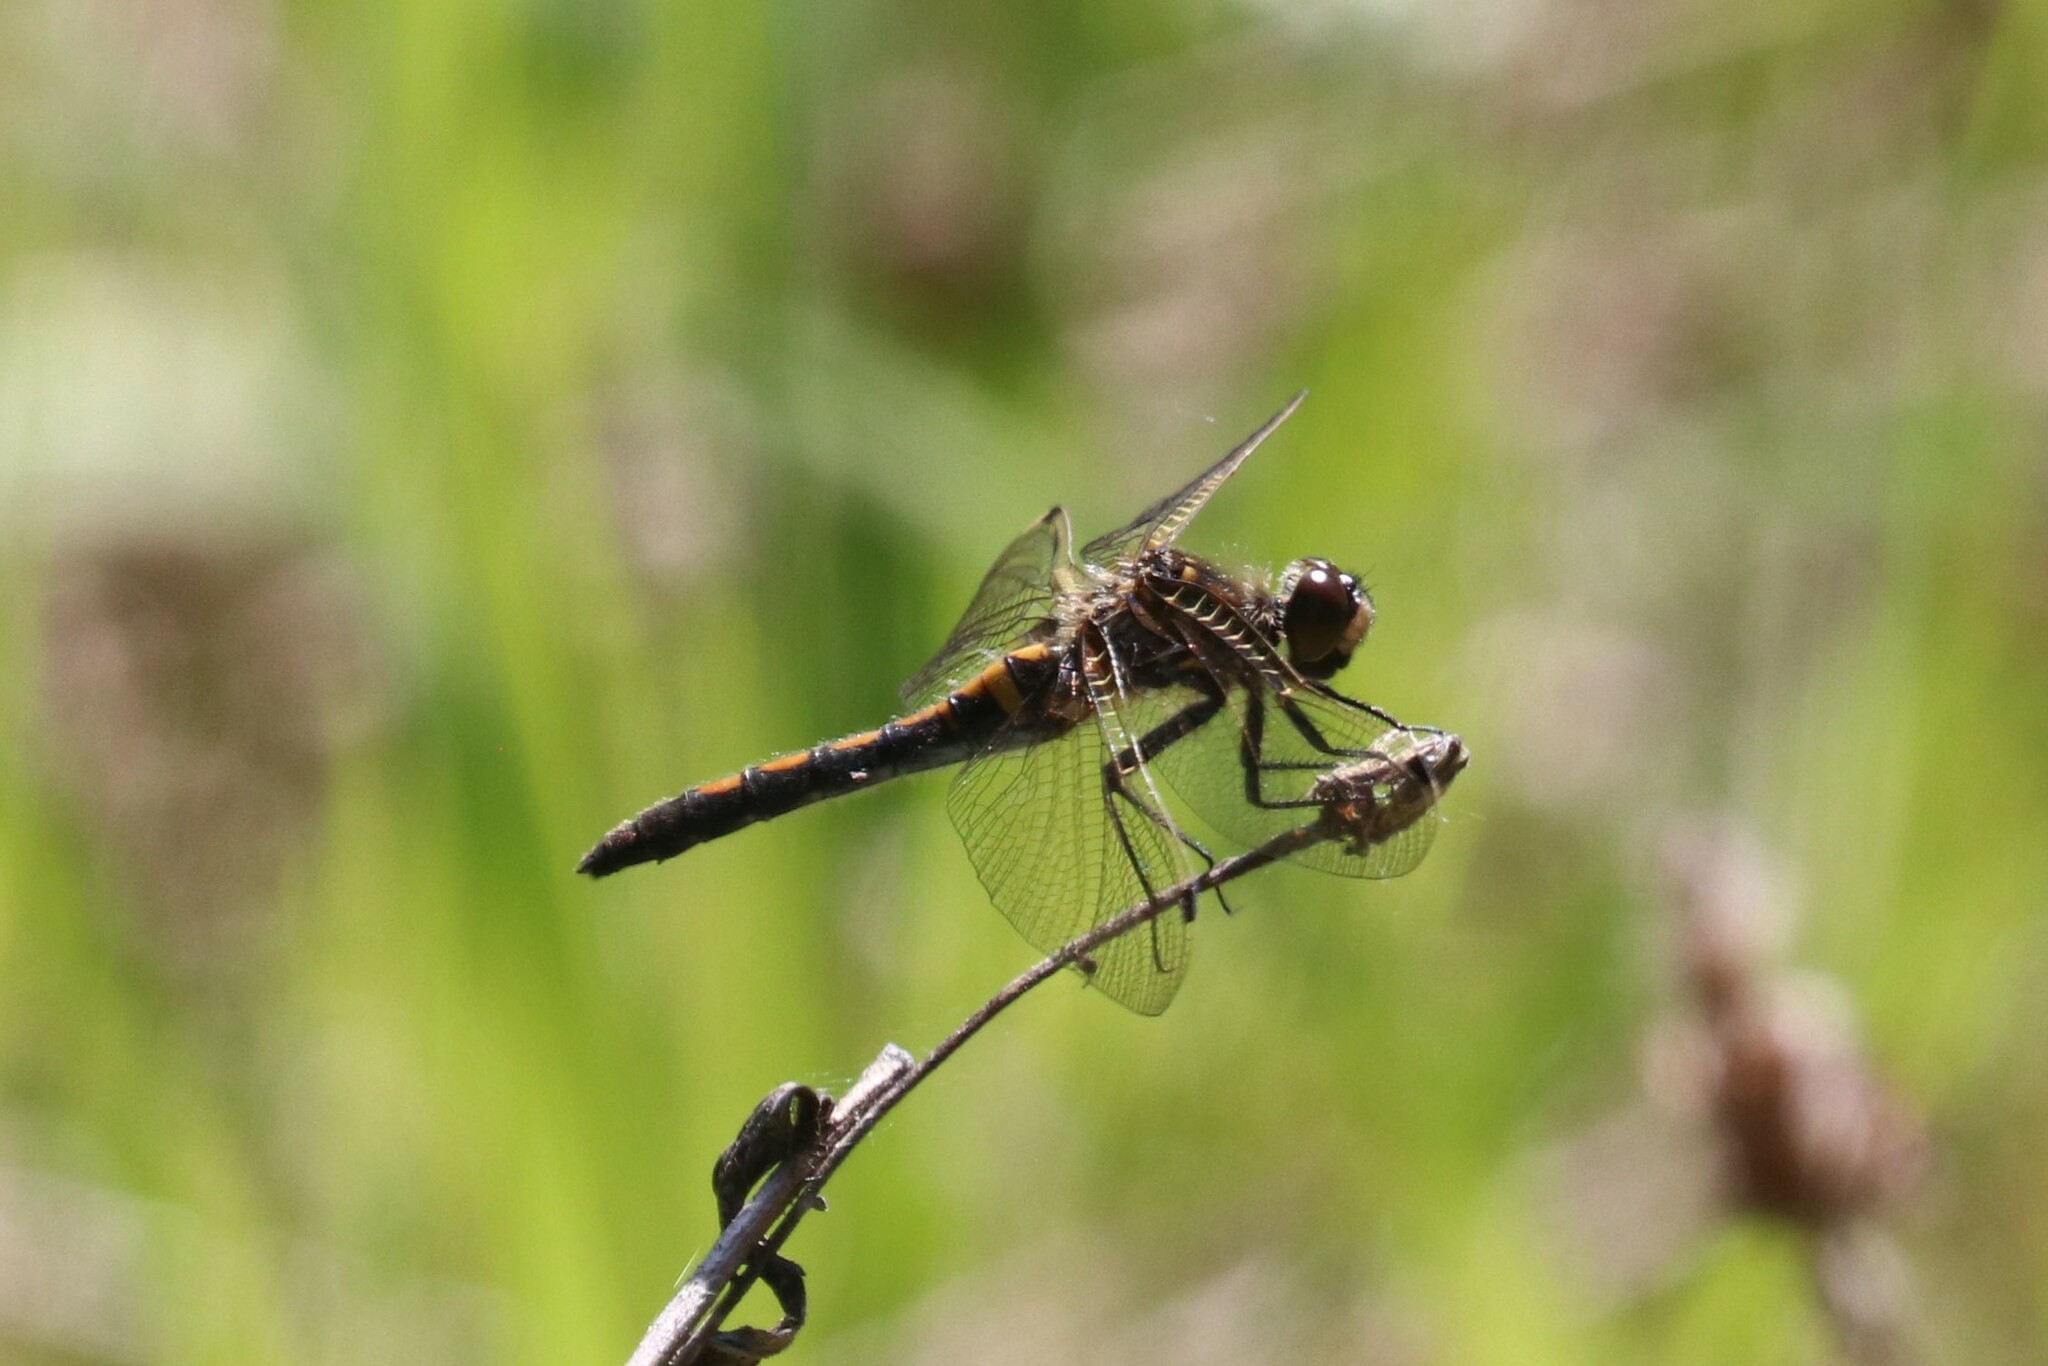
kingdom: Animalia
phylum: Arthropoda
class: Insecta
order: Odonata
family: Libellulidae
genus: Leucorrhinia
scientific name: Leucorrhinia rubicunda
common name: Ruby whiteface
